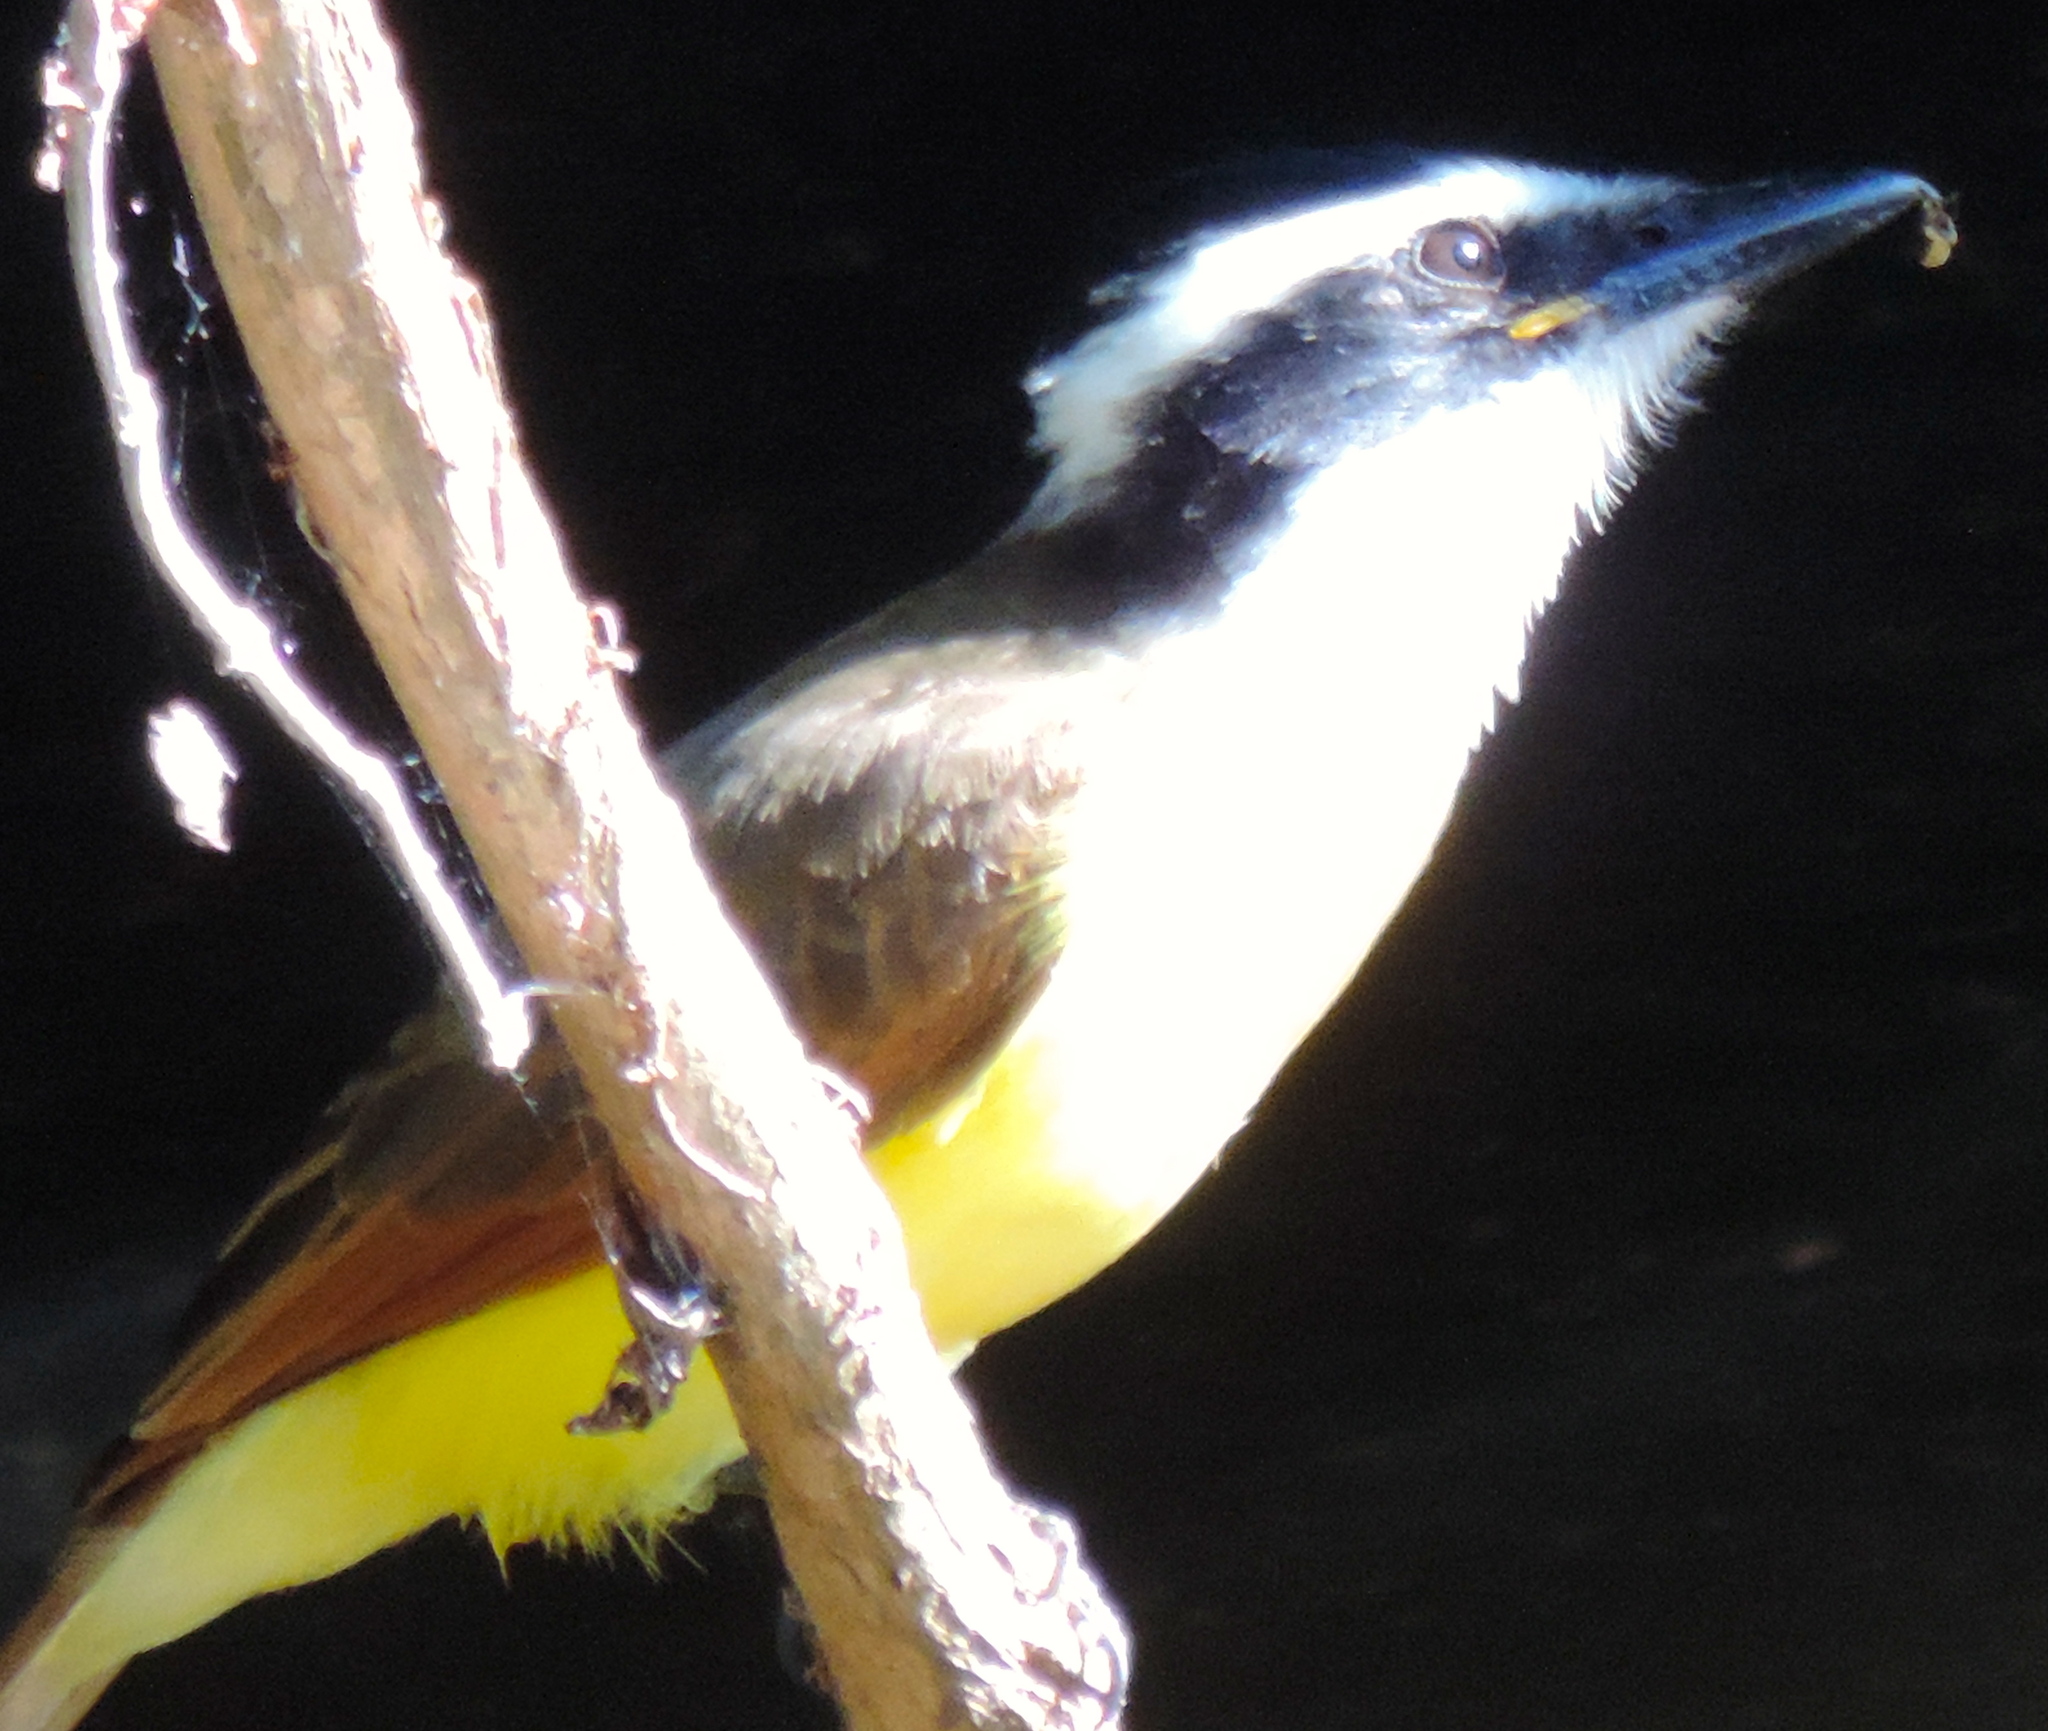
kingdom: Animalia
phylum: Chordata
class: Aves
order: Passeriformes
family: Tyrannidae
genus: Pitangus
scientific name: Pitangus sulphuratus
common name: Great kiskadee
